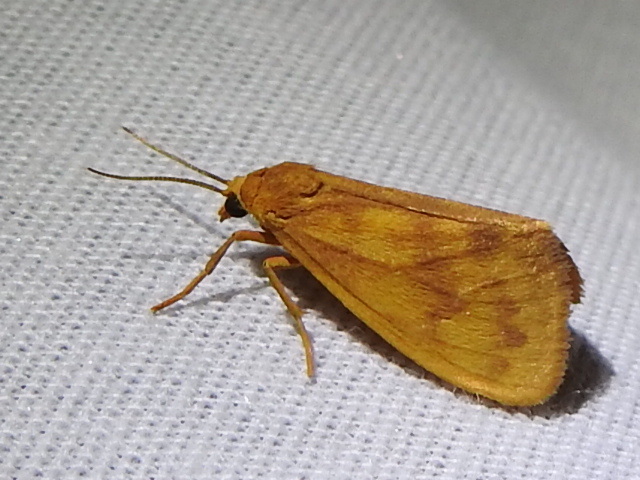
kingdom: Animalia
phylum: Arthropoda
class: Insecta
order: Lepidoptera
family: Erebidae
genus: Virbia
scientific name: Virbia aurantiaca
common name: Orange virbia moth
